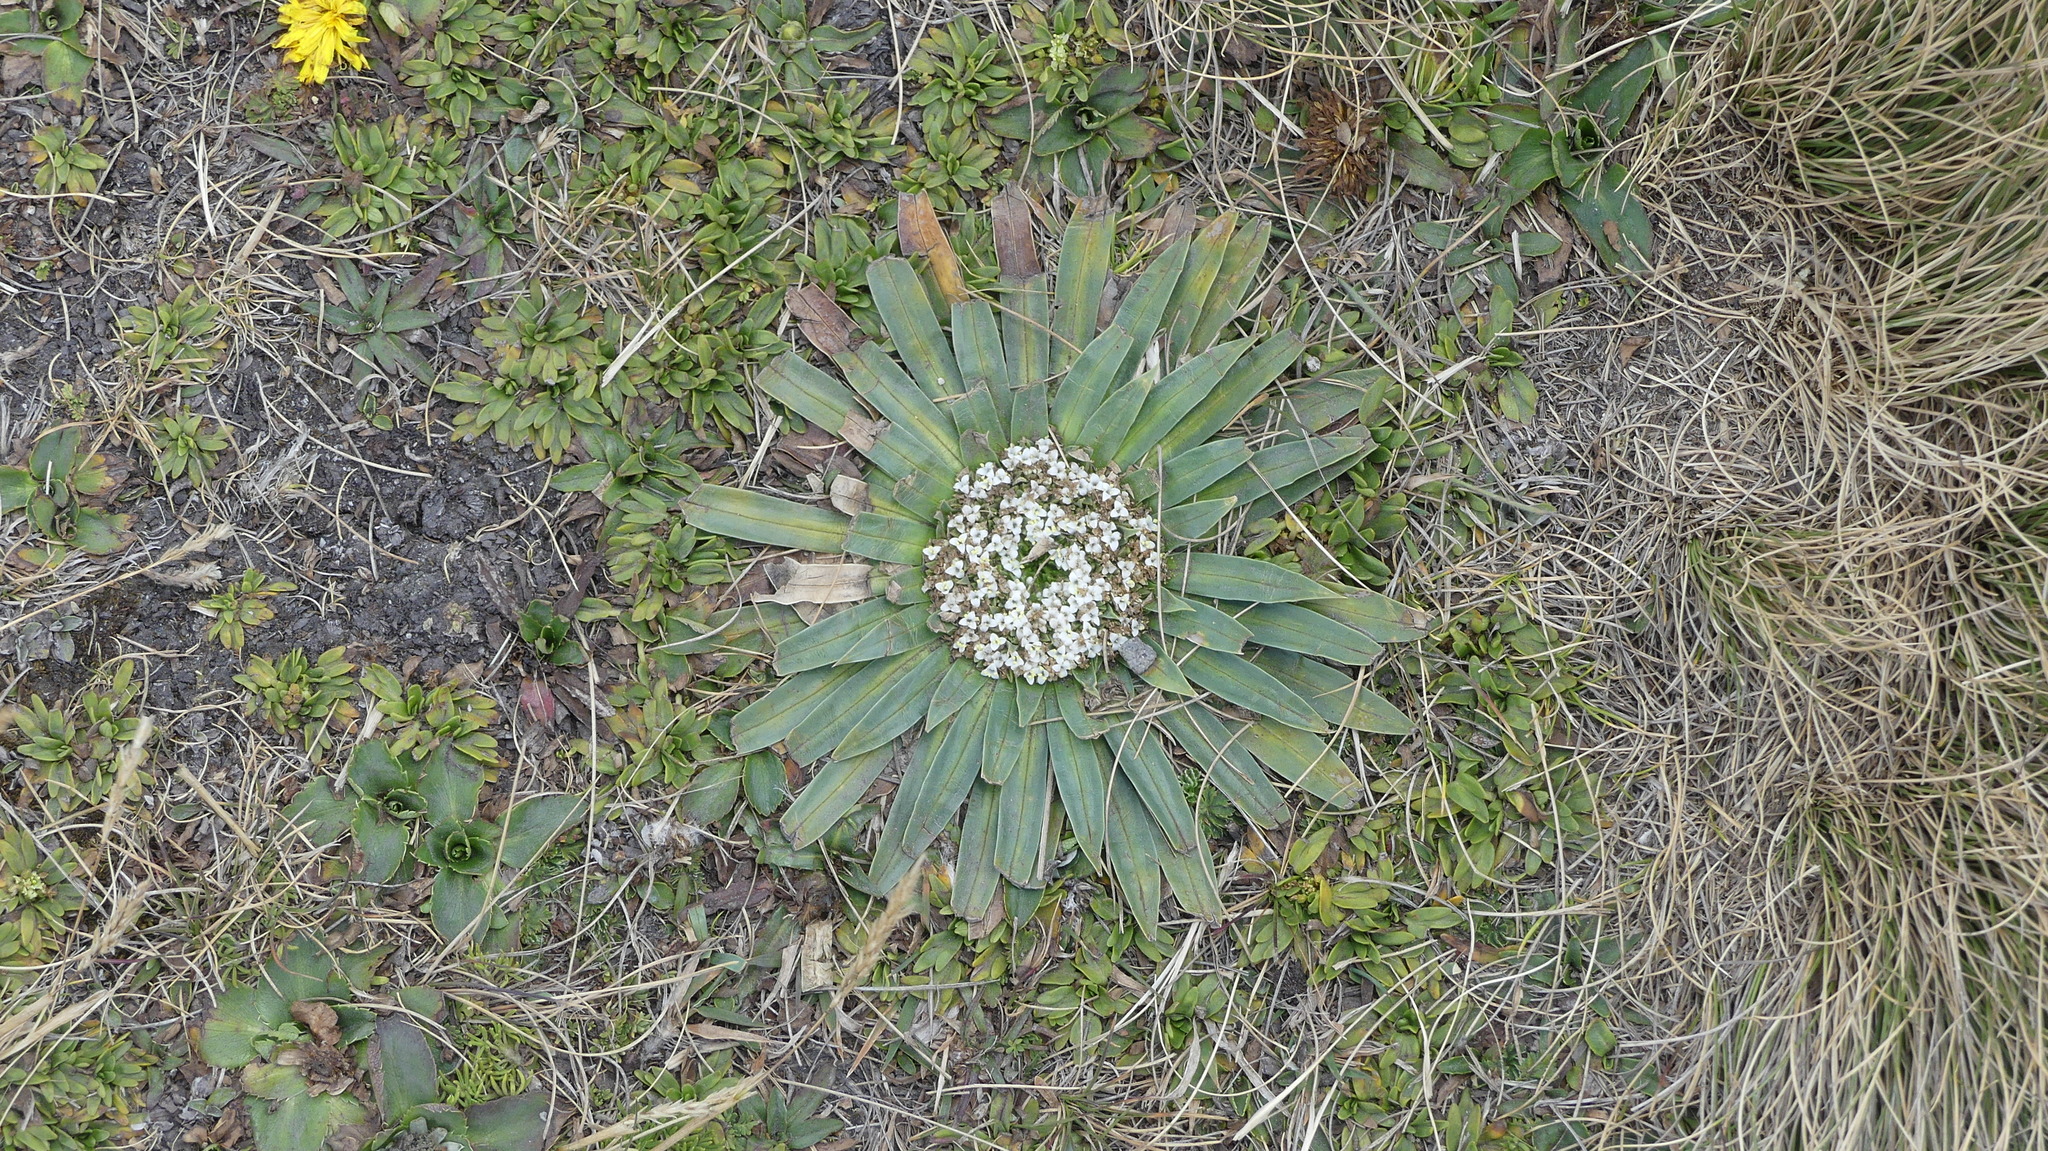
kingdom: Plantae
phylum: Tracheophyta
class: Magnoliopsida
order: Dipsacales
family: Caprifoliaceae
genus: Valeriana
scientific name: Valeriana rigida
